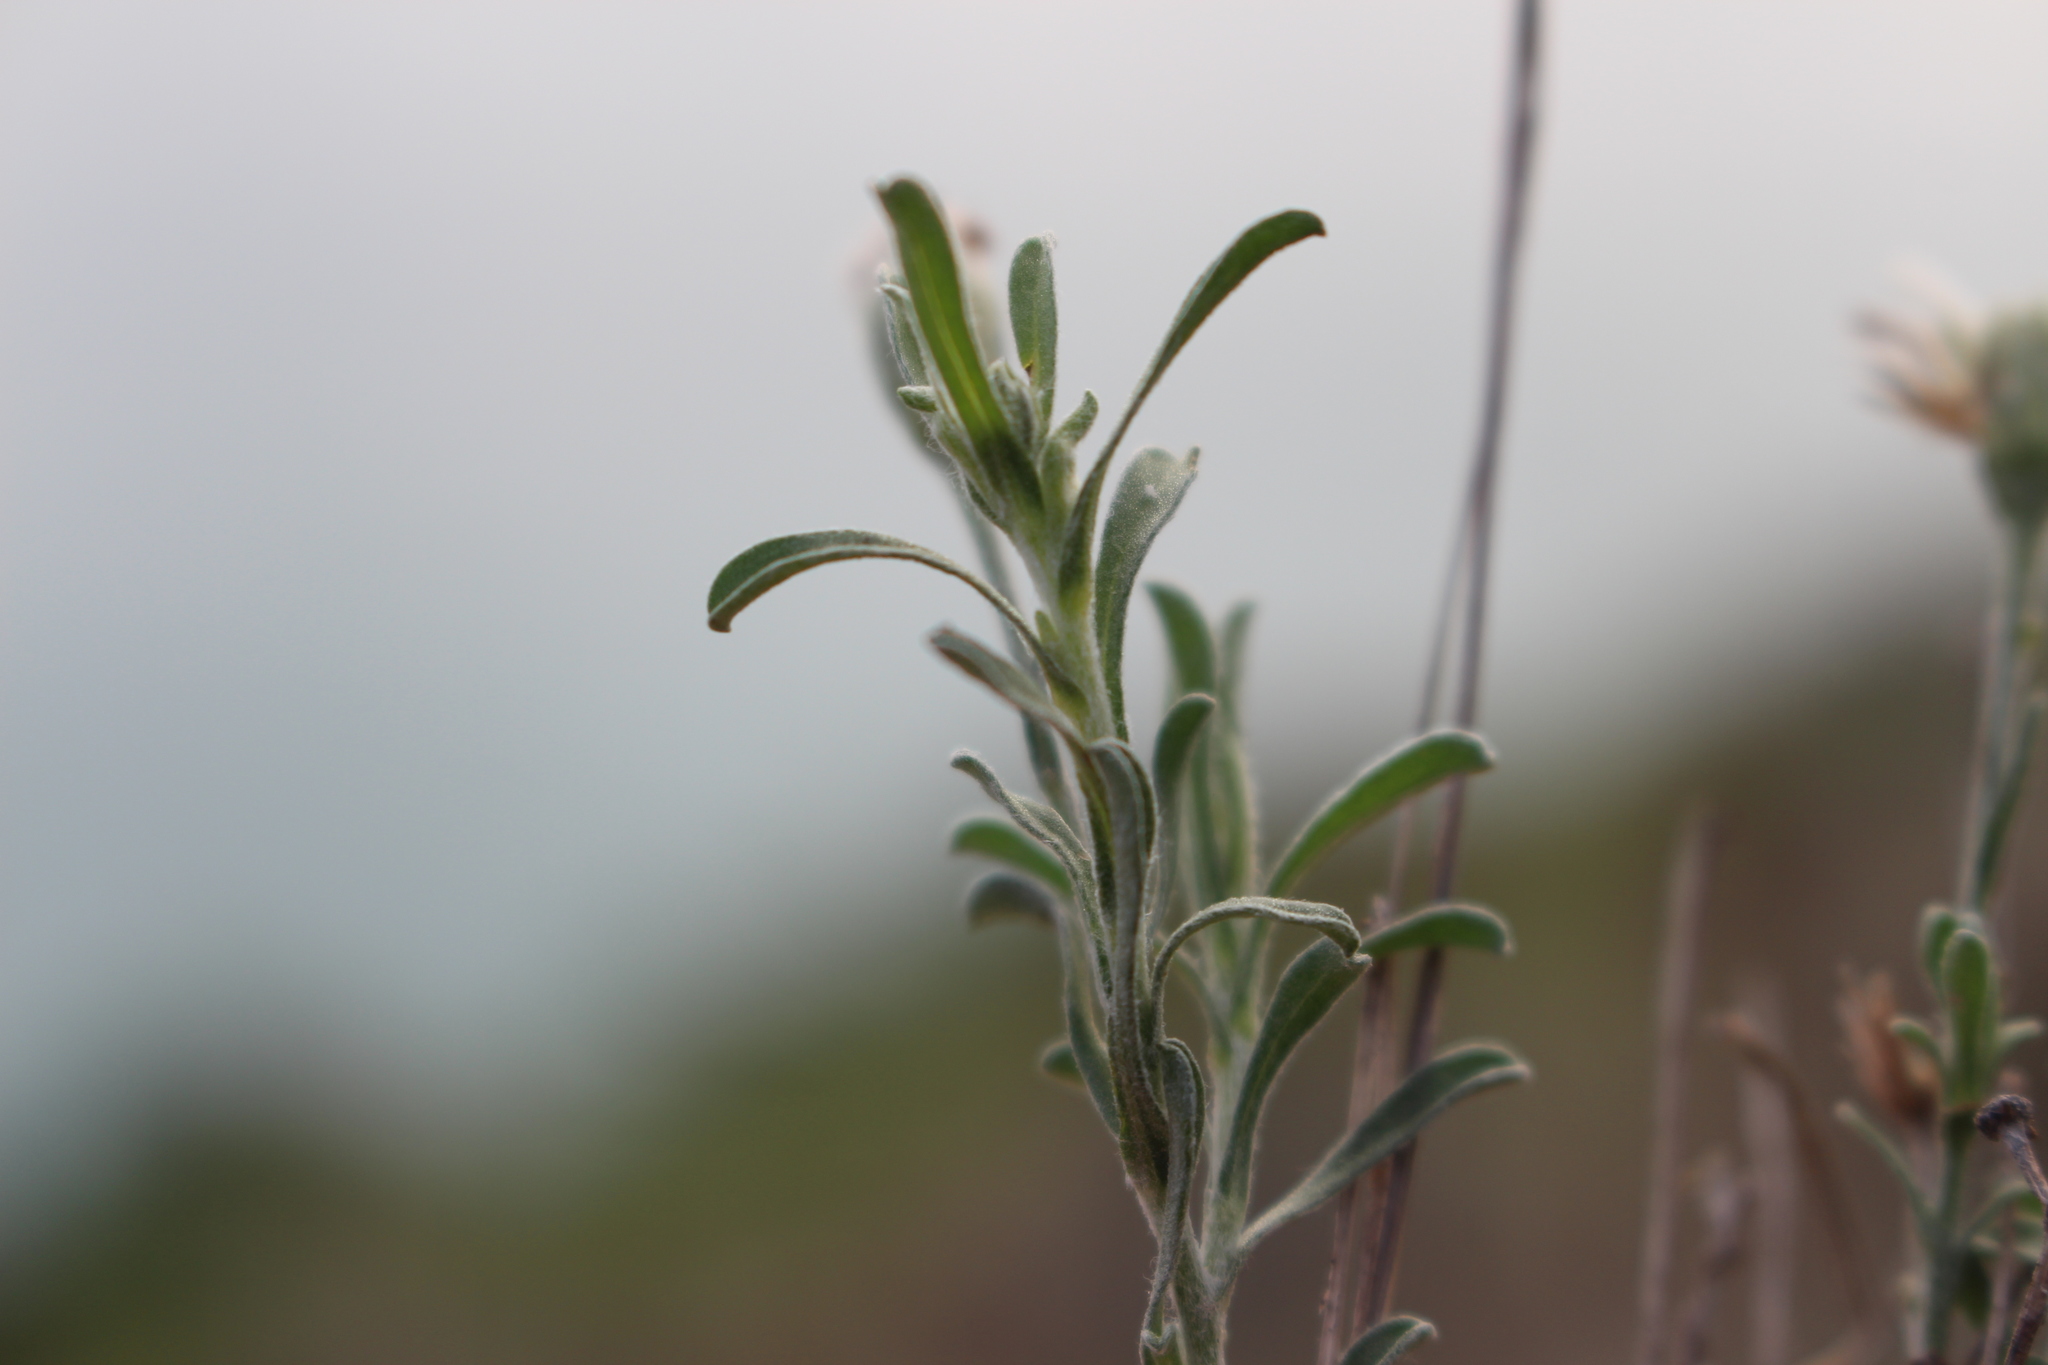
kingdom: Plantae
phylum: Tracheophyta
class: Magnoliopsida
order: Asterales
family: Asteraceae
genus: Vittadinia
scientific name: Vittadinia gracilis
